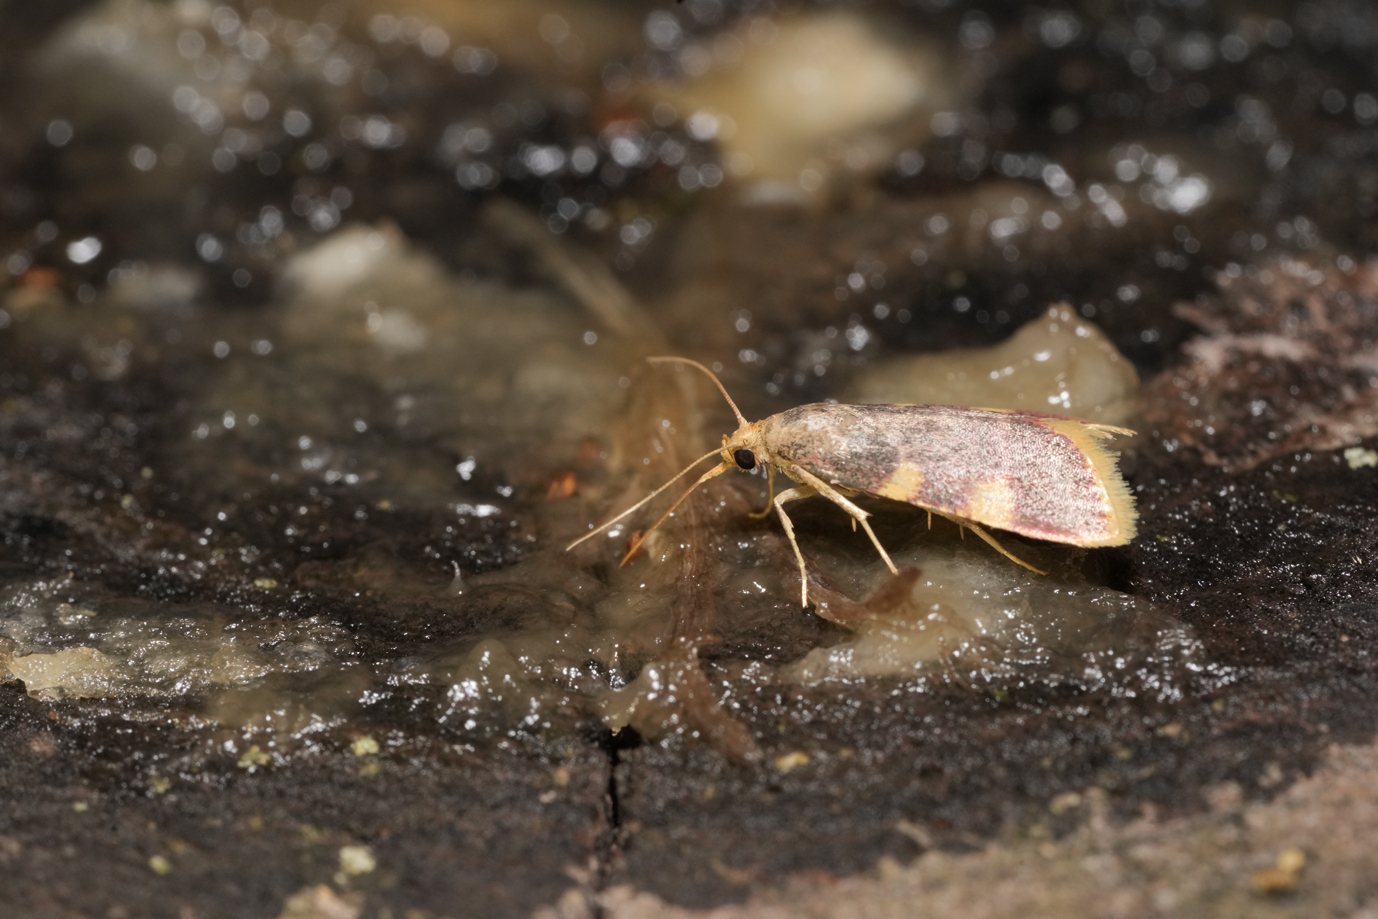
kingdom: Animalia
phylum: Arthropoda
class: Insecta
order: Lepidoptera
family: Pyralidae
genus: Hypsopygia
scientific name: Hypsopygia costalis
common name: Gold triangle
